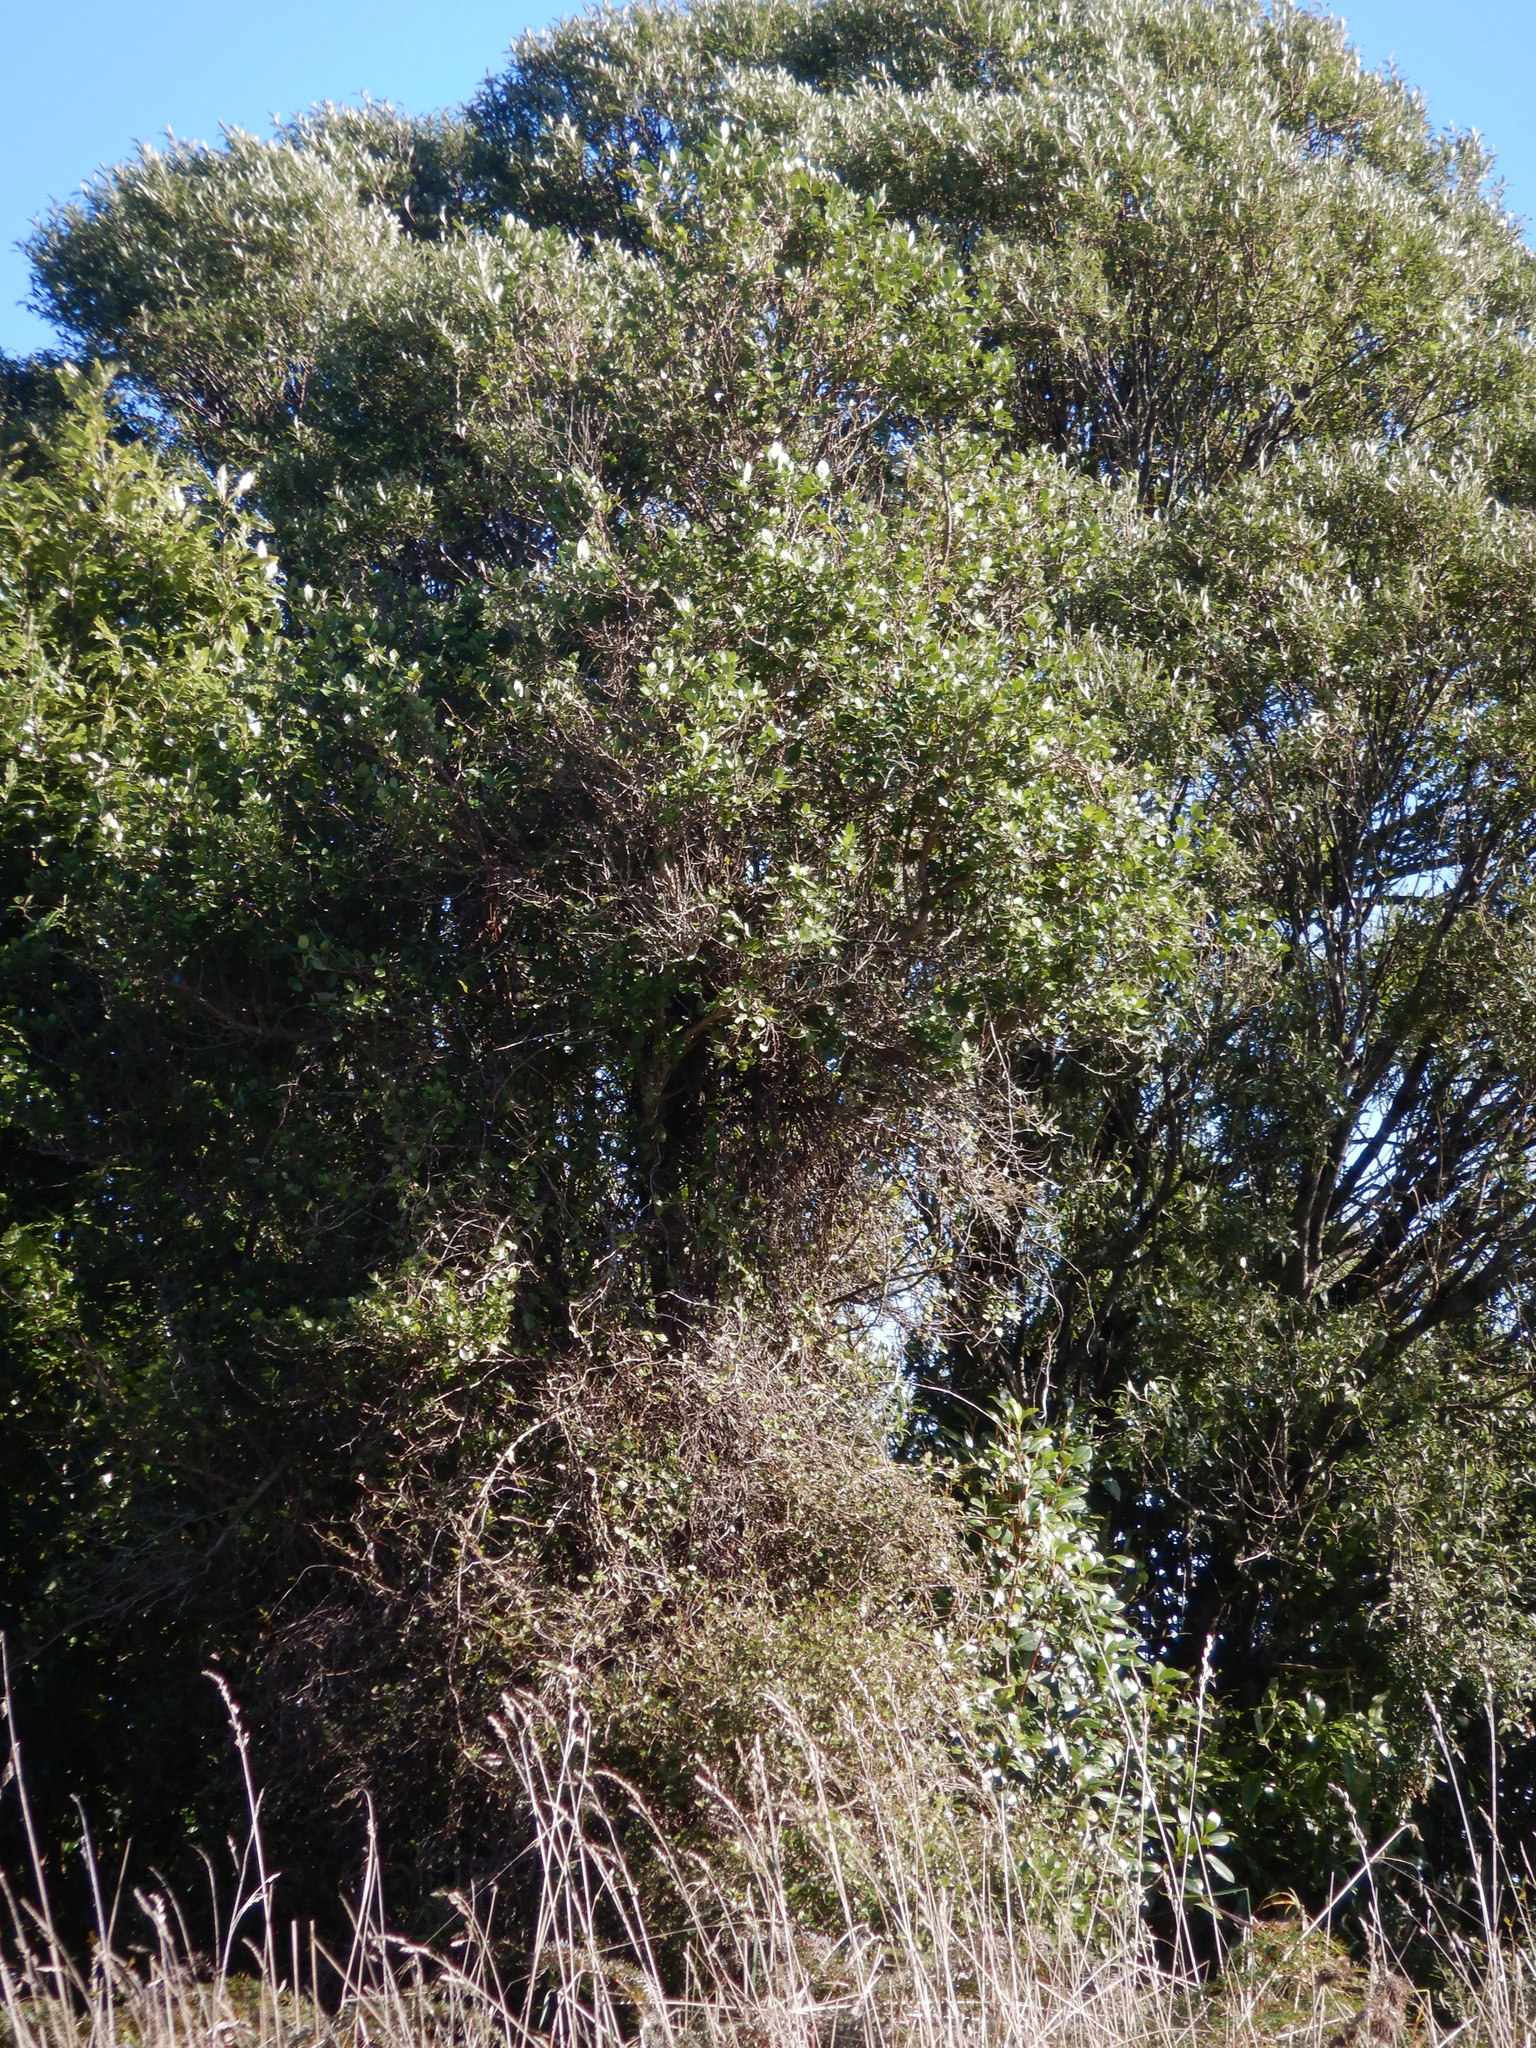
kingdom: Plantae
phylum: Tracheophyta
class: Magnoliopsida
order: Apiales
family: Pennantiaceae
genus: Pennantia
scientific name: Pennantia corymbosa
